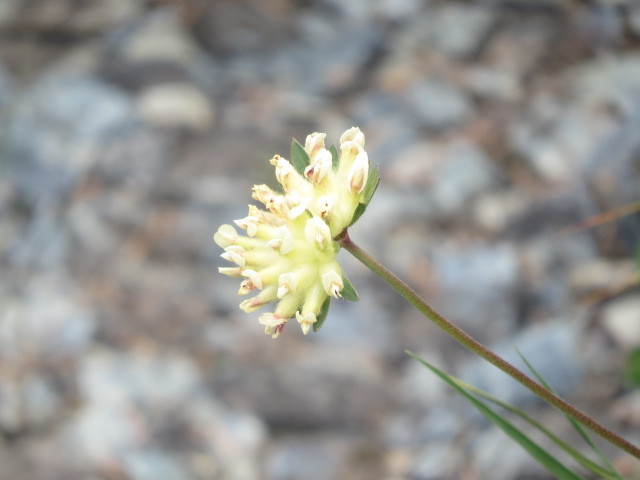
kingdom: Plantae
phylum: Tracheophyta
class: Magnoliopsida
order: Fabales
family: Fabaceae
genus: Anthyllis
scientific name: Anthyllis vulneraria
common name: Kidney vetch
